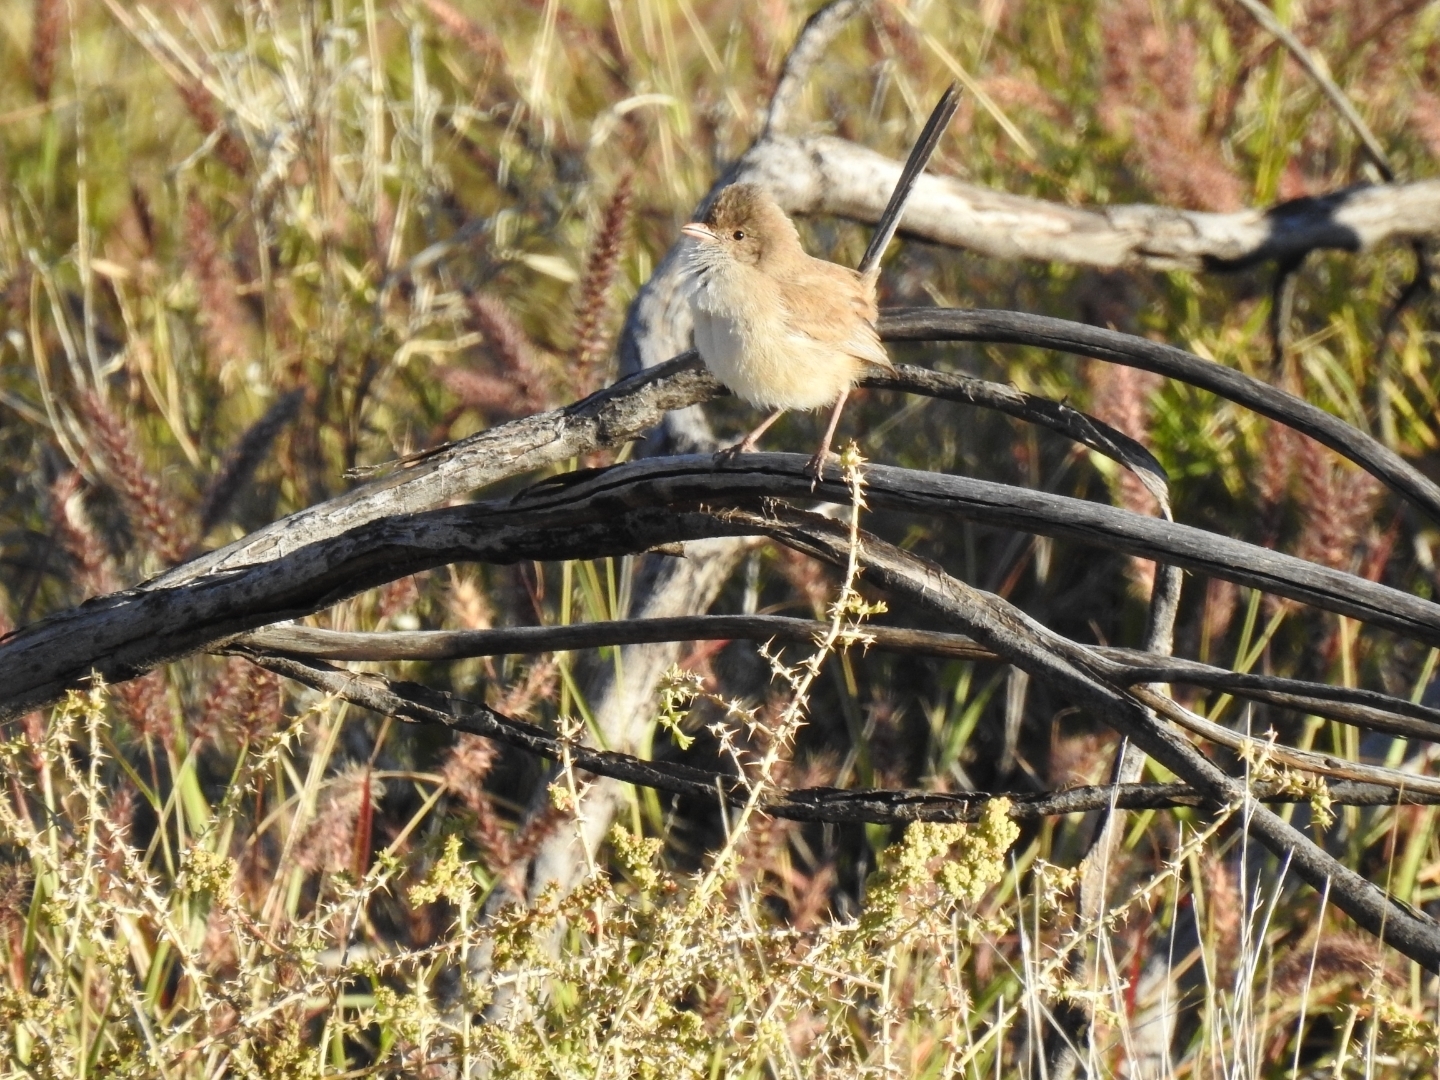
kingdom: Animalia
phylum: Chordata
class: Aves
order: Passeriformes
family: Maluridae
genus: Malurus
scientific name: Malurus leucopterus
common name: White-winged fairywren
